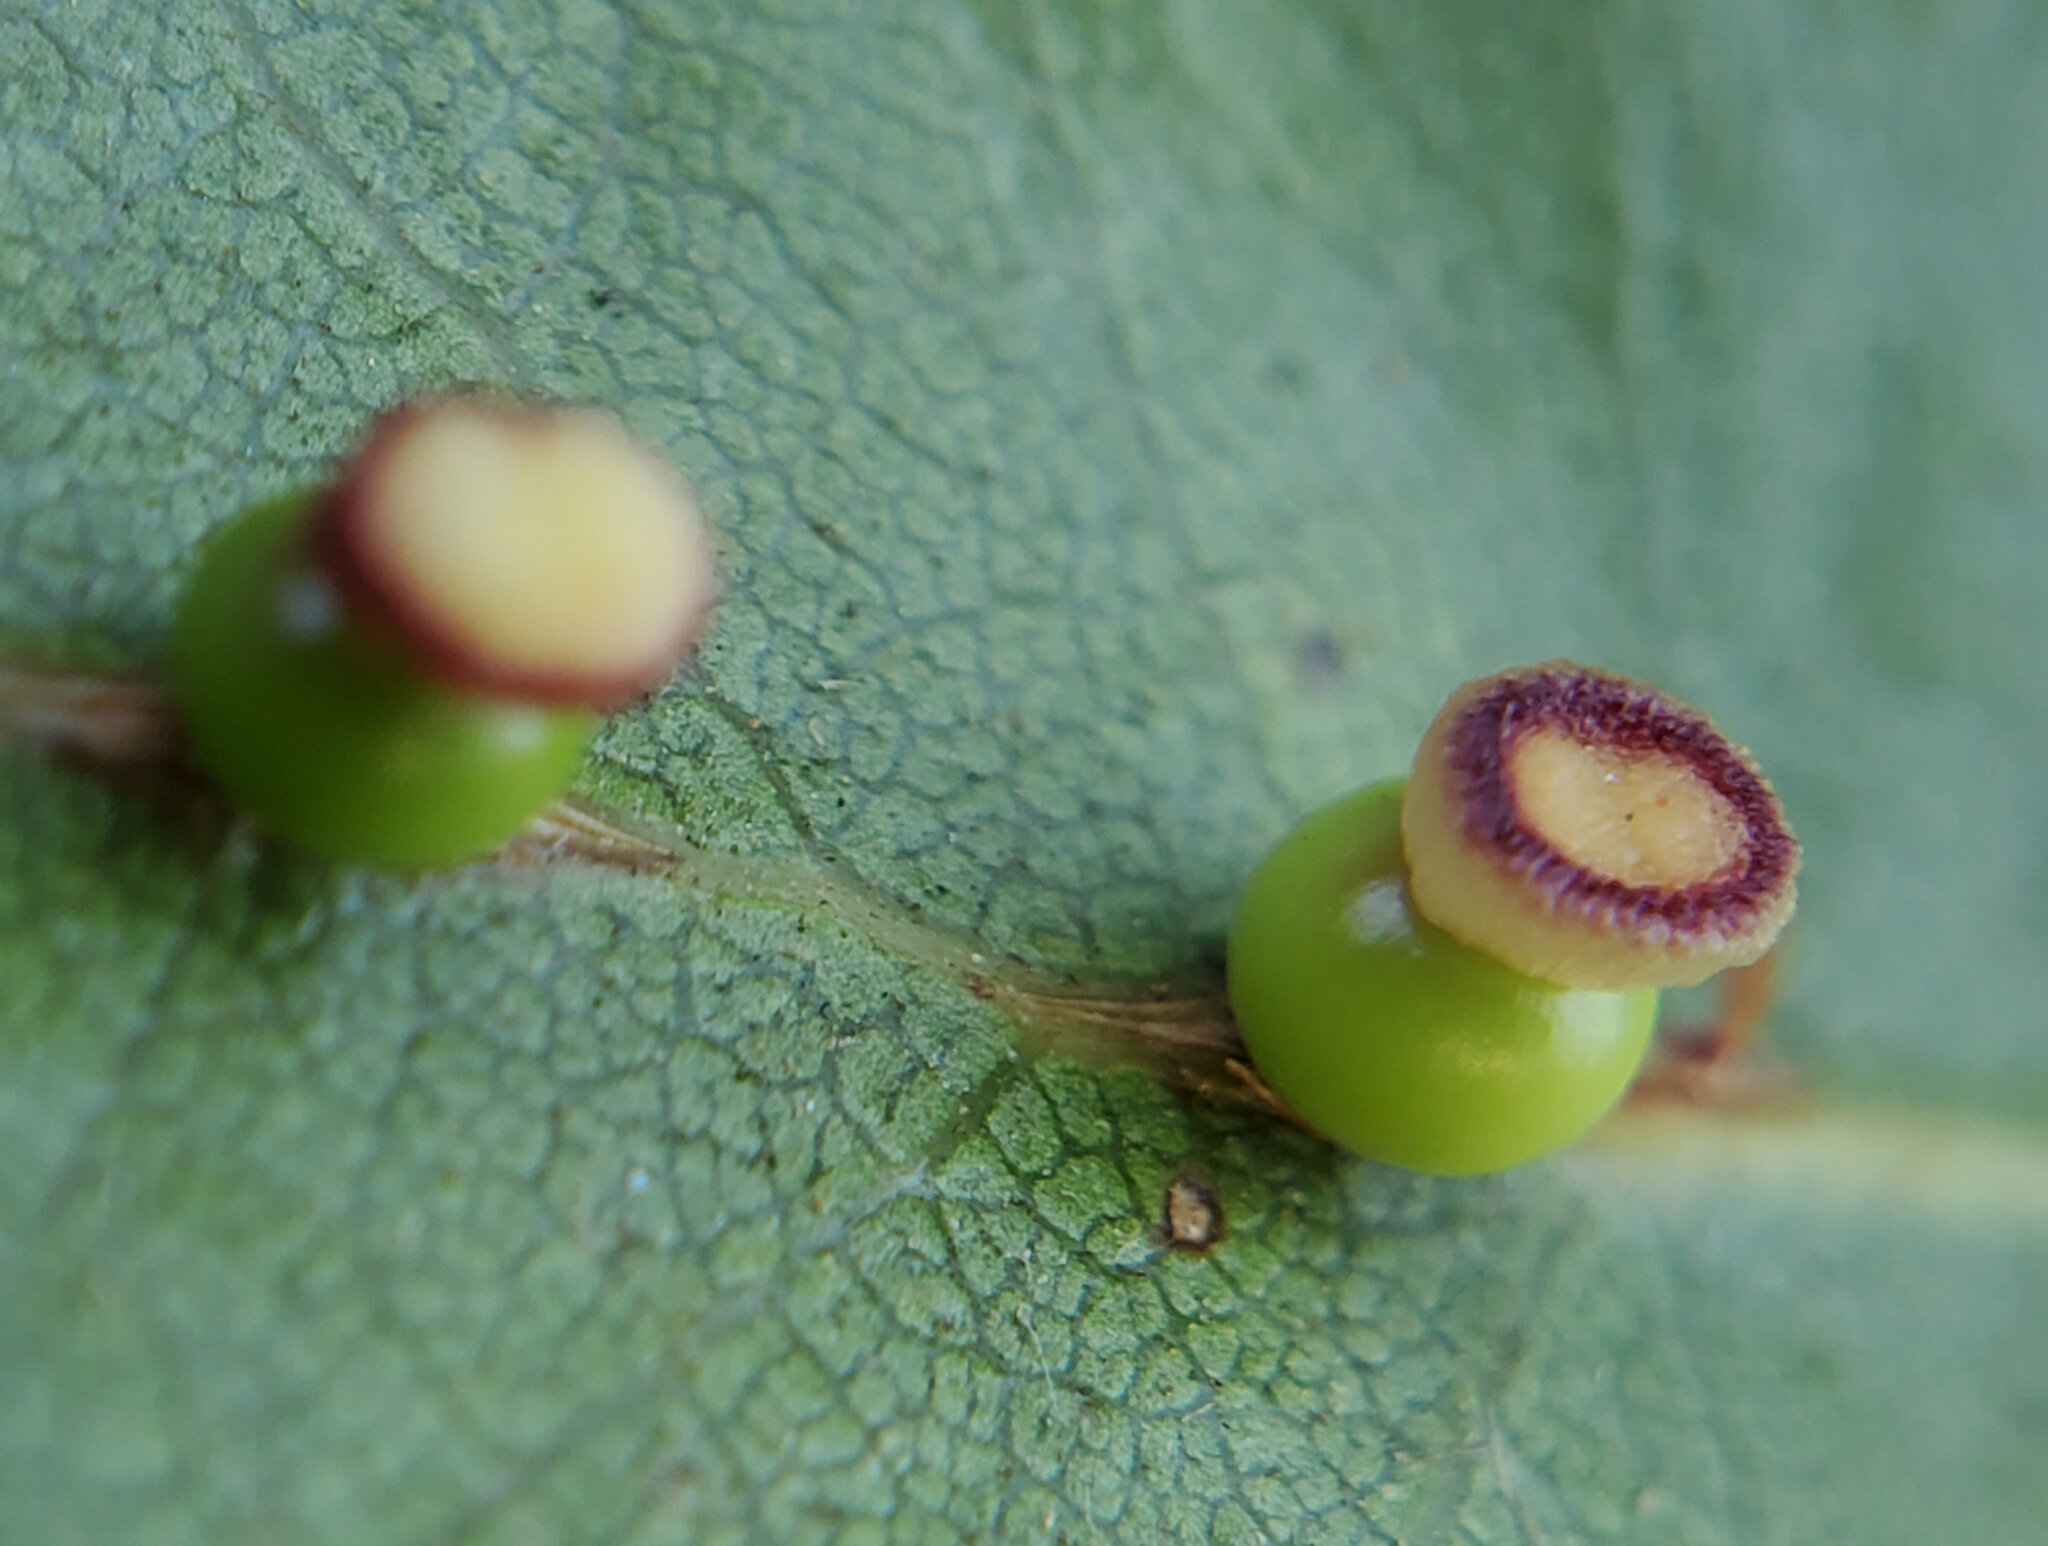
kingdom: Animalia
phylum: Arthropoda
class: Insecta
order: Hymenoptera
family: Cynipidae
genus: Callirhytis
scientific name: Callirhytis
